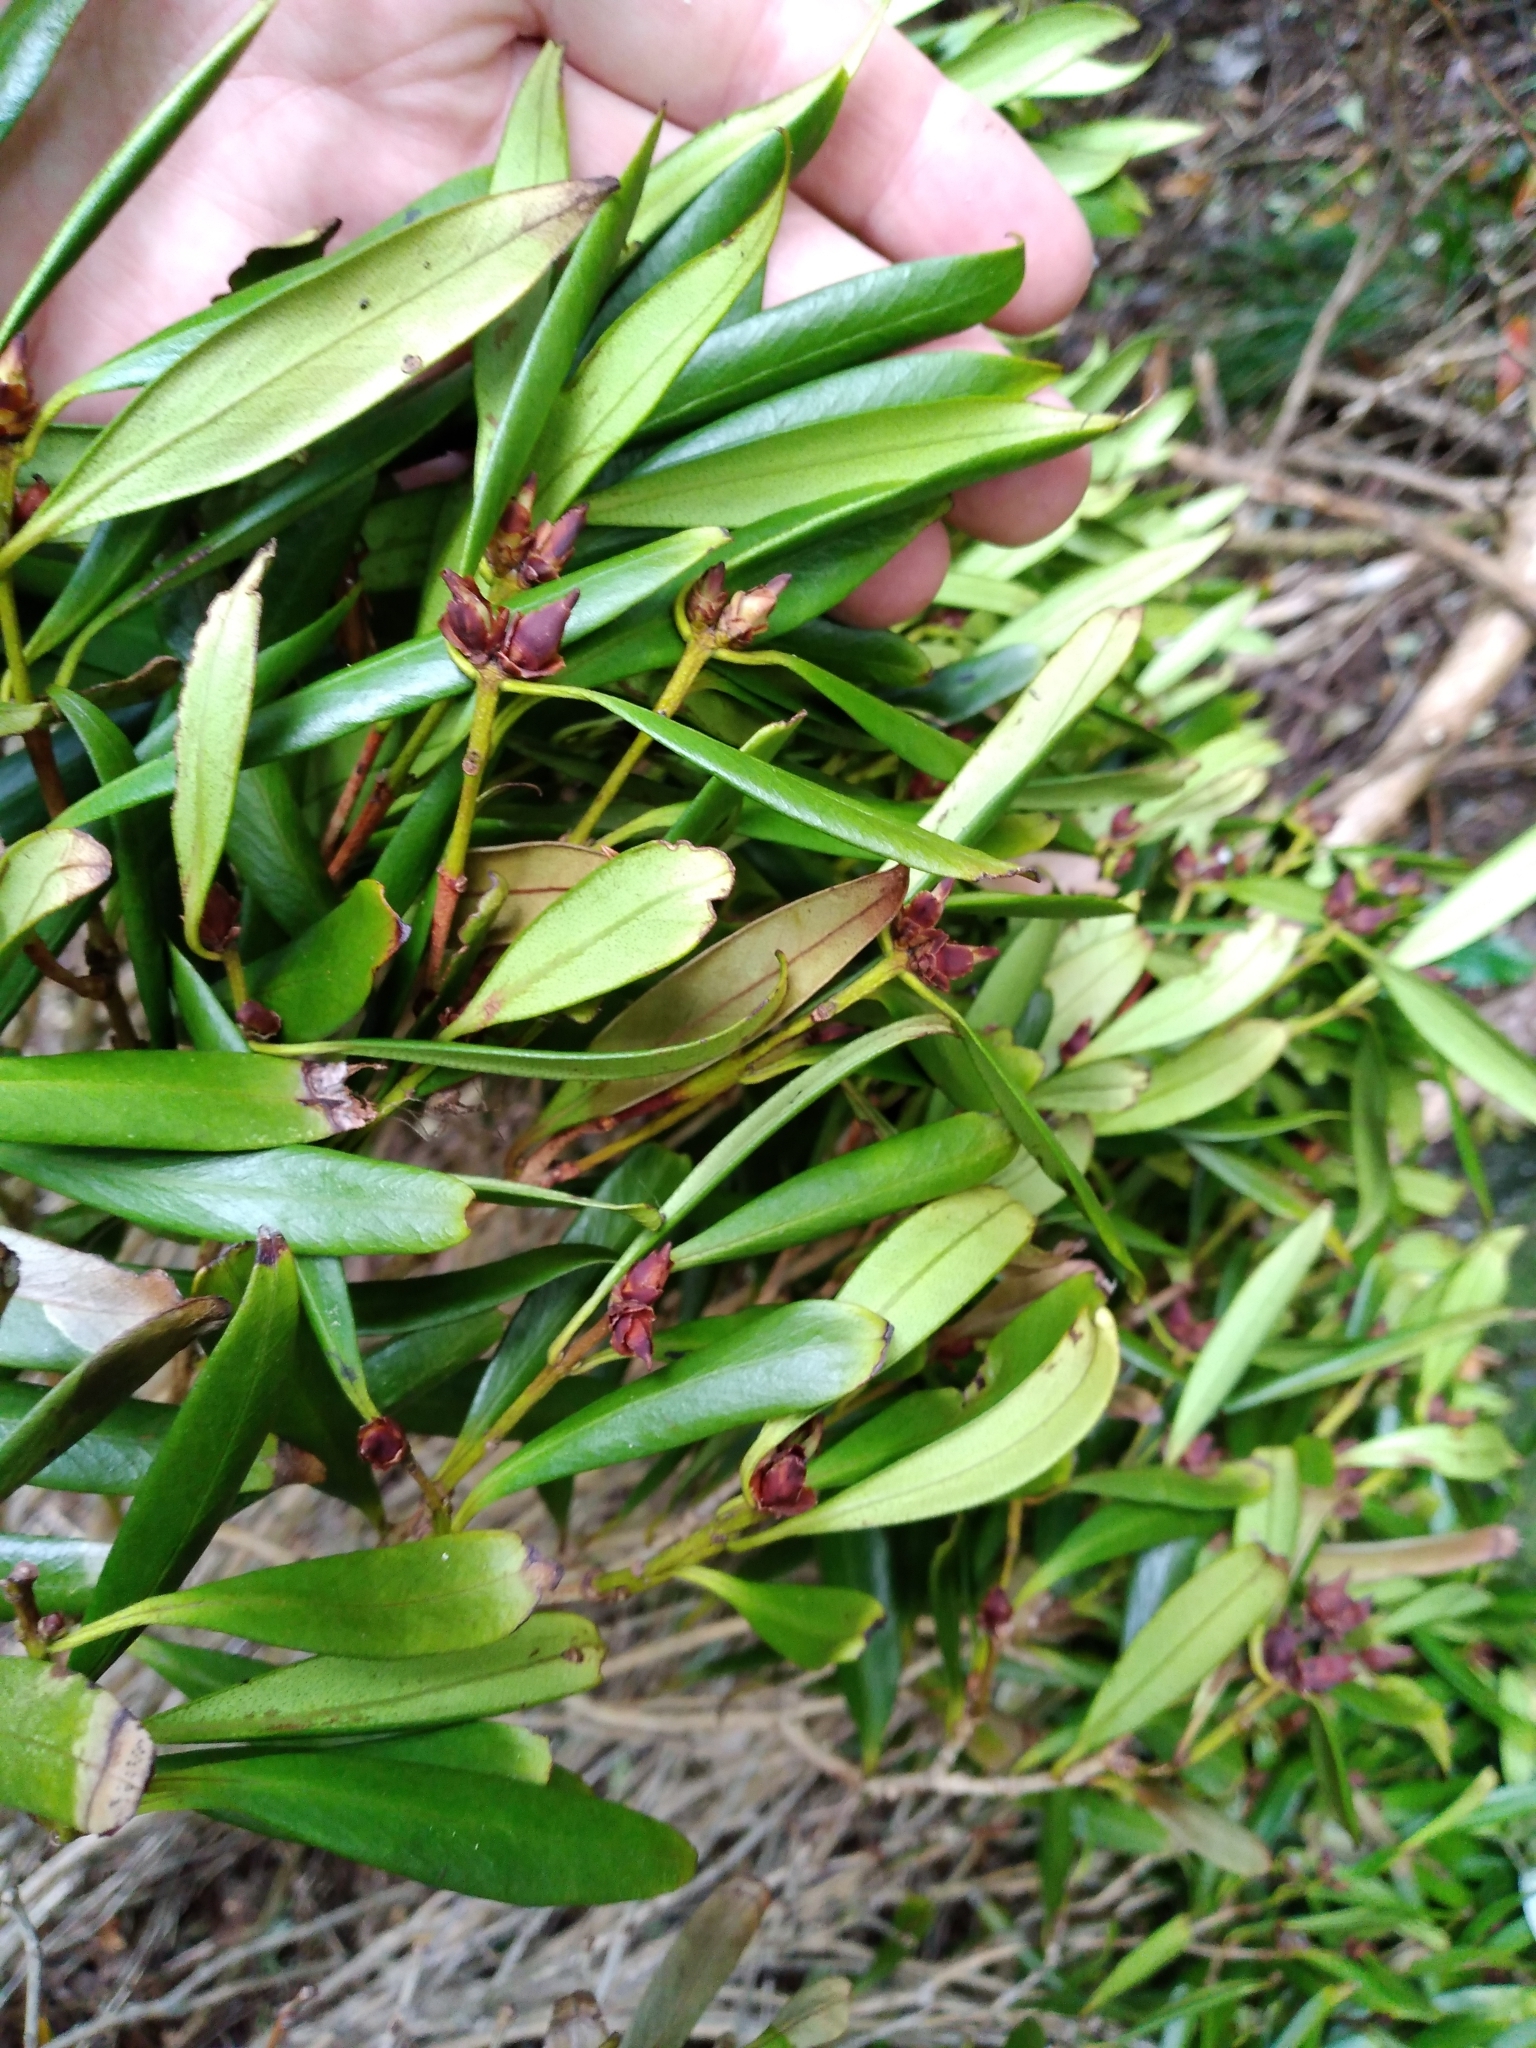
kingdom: Plantae
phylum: Tracheophyta
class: Magnoliopsida
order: Myrtales
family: Myrtaceae
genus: Metrosideros
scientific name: Metrosideros umbellata
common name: Southern rata
